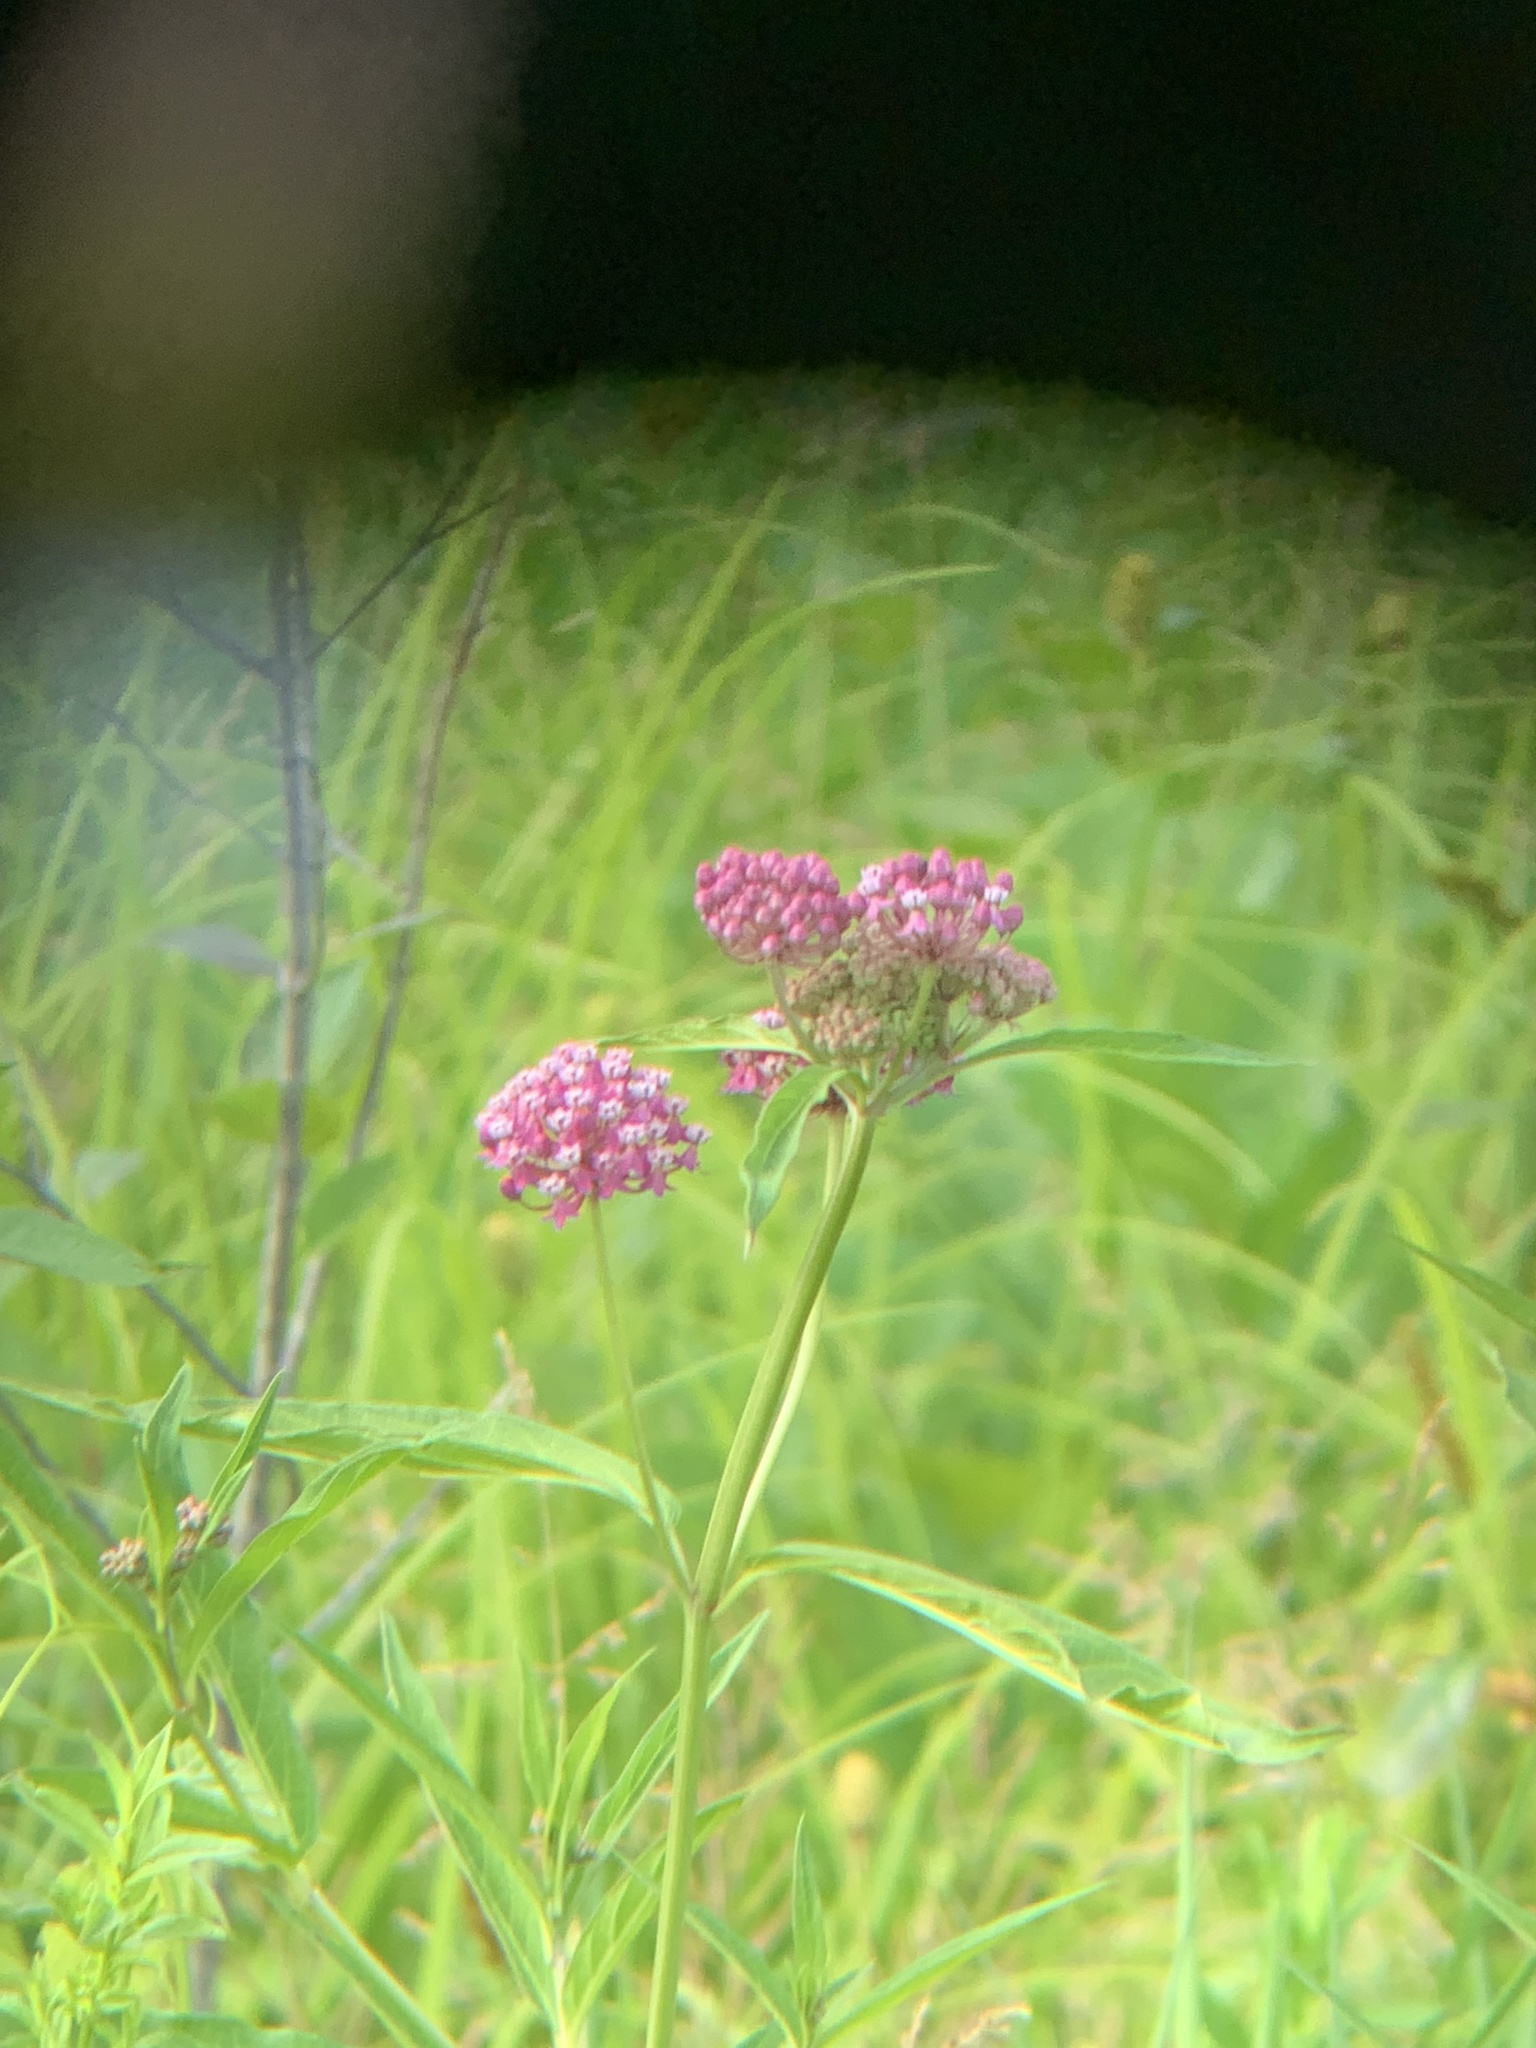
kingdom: Plantae
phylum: Tracheophyta
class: Magnoliopsida
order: Gentianales
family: Apocynaceae
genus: Asclepias
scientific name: Asclepias incarnata
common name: Swamp milkweed
